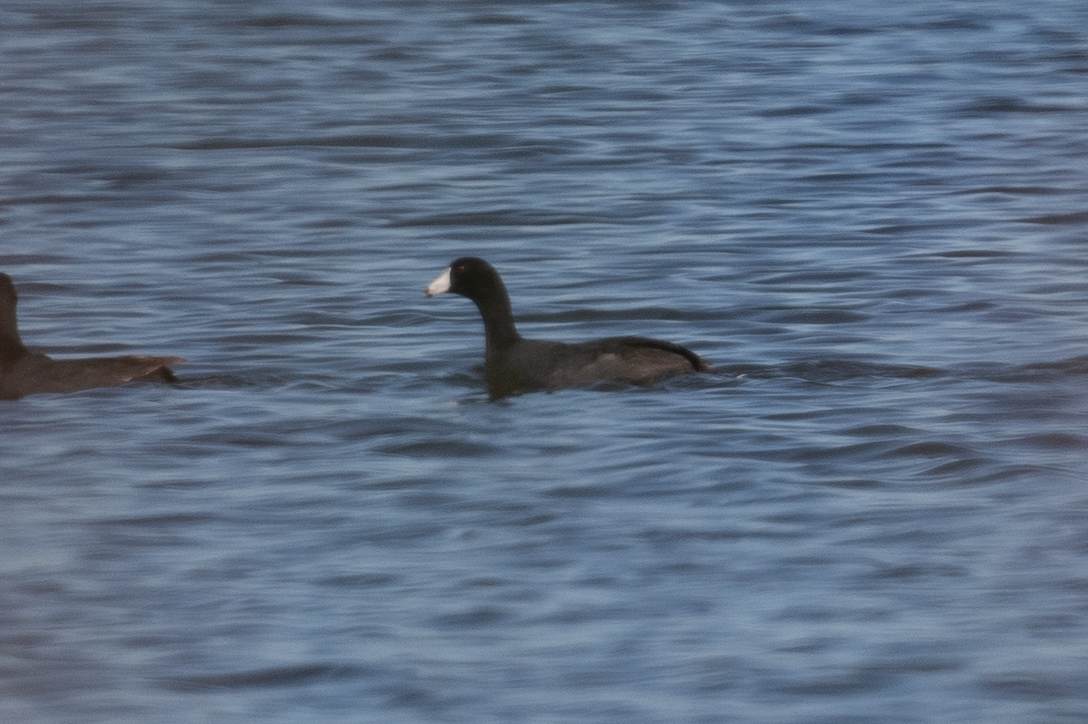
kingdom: Animalia
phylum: Chordata
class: Aves
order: Gruiformes
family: Rallidae
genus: Fulica
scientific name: Fulica americana
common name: American coot
